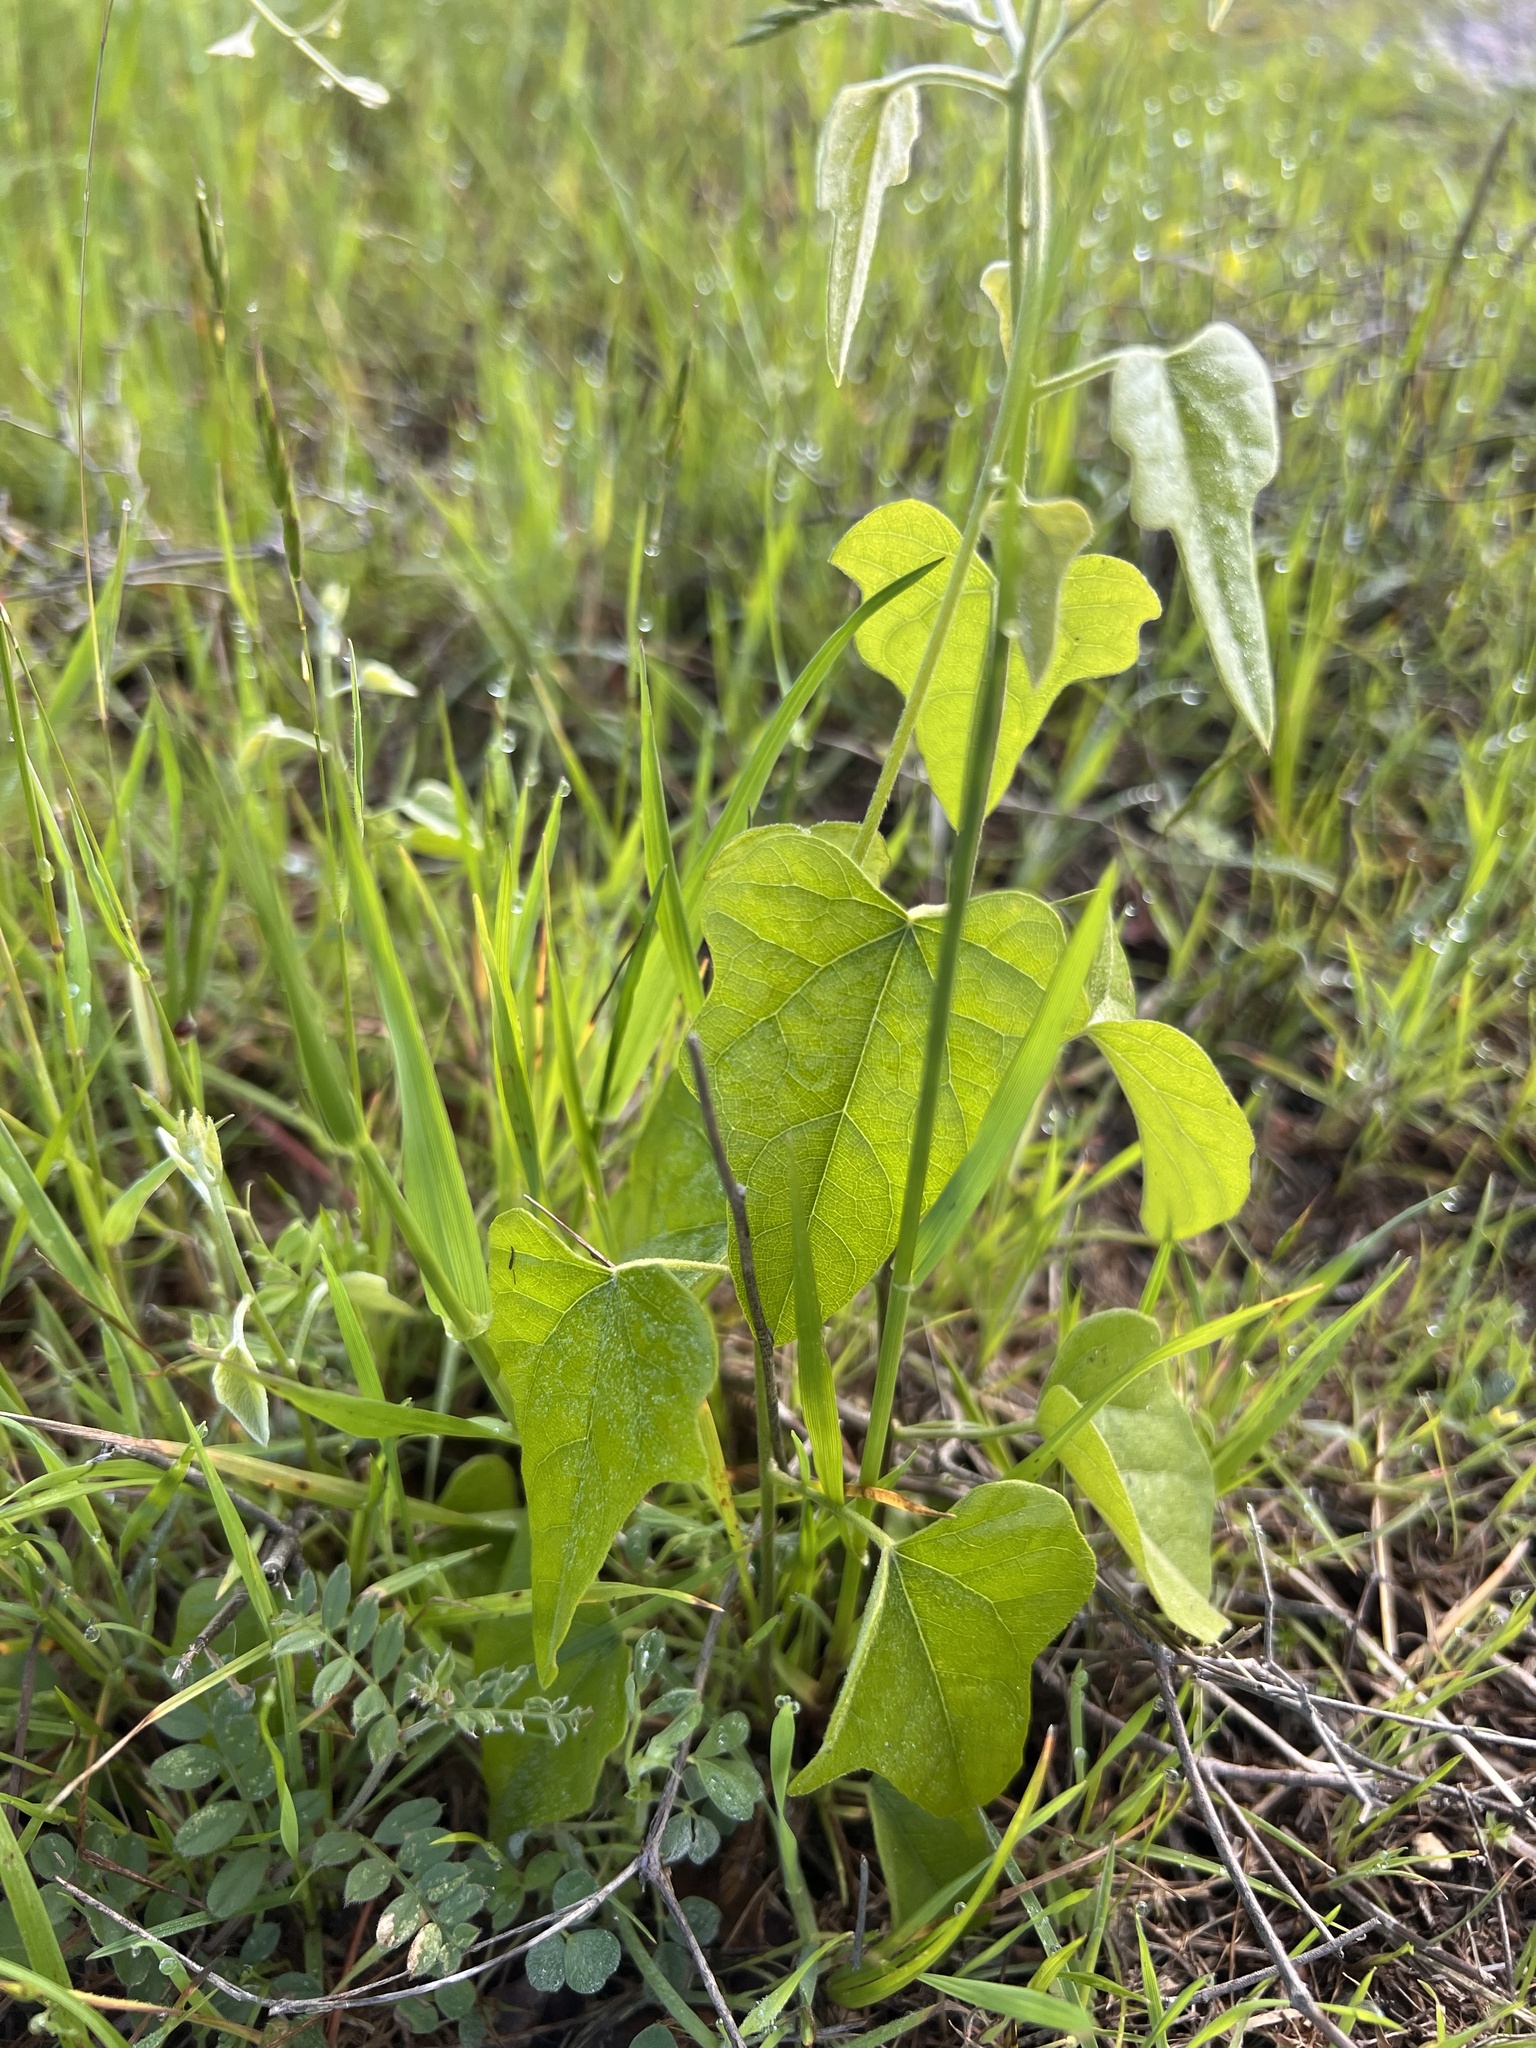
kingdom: Plantae
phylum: Tracheophyta
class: Magnoliopsida
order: Ranunculales
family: Menispermaceae
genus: Cocculus
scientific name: Cocculus carolinus
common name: Carolina moonseed
